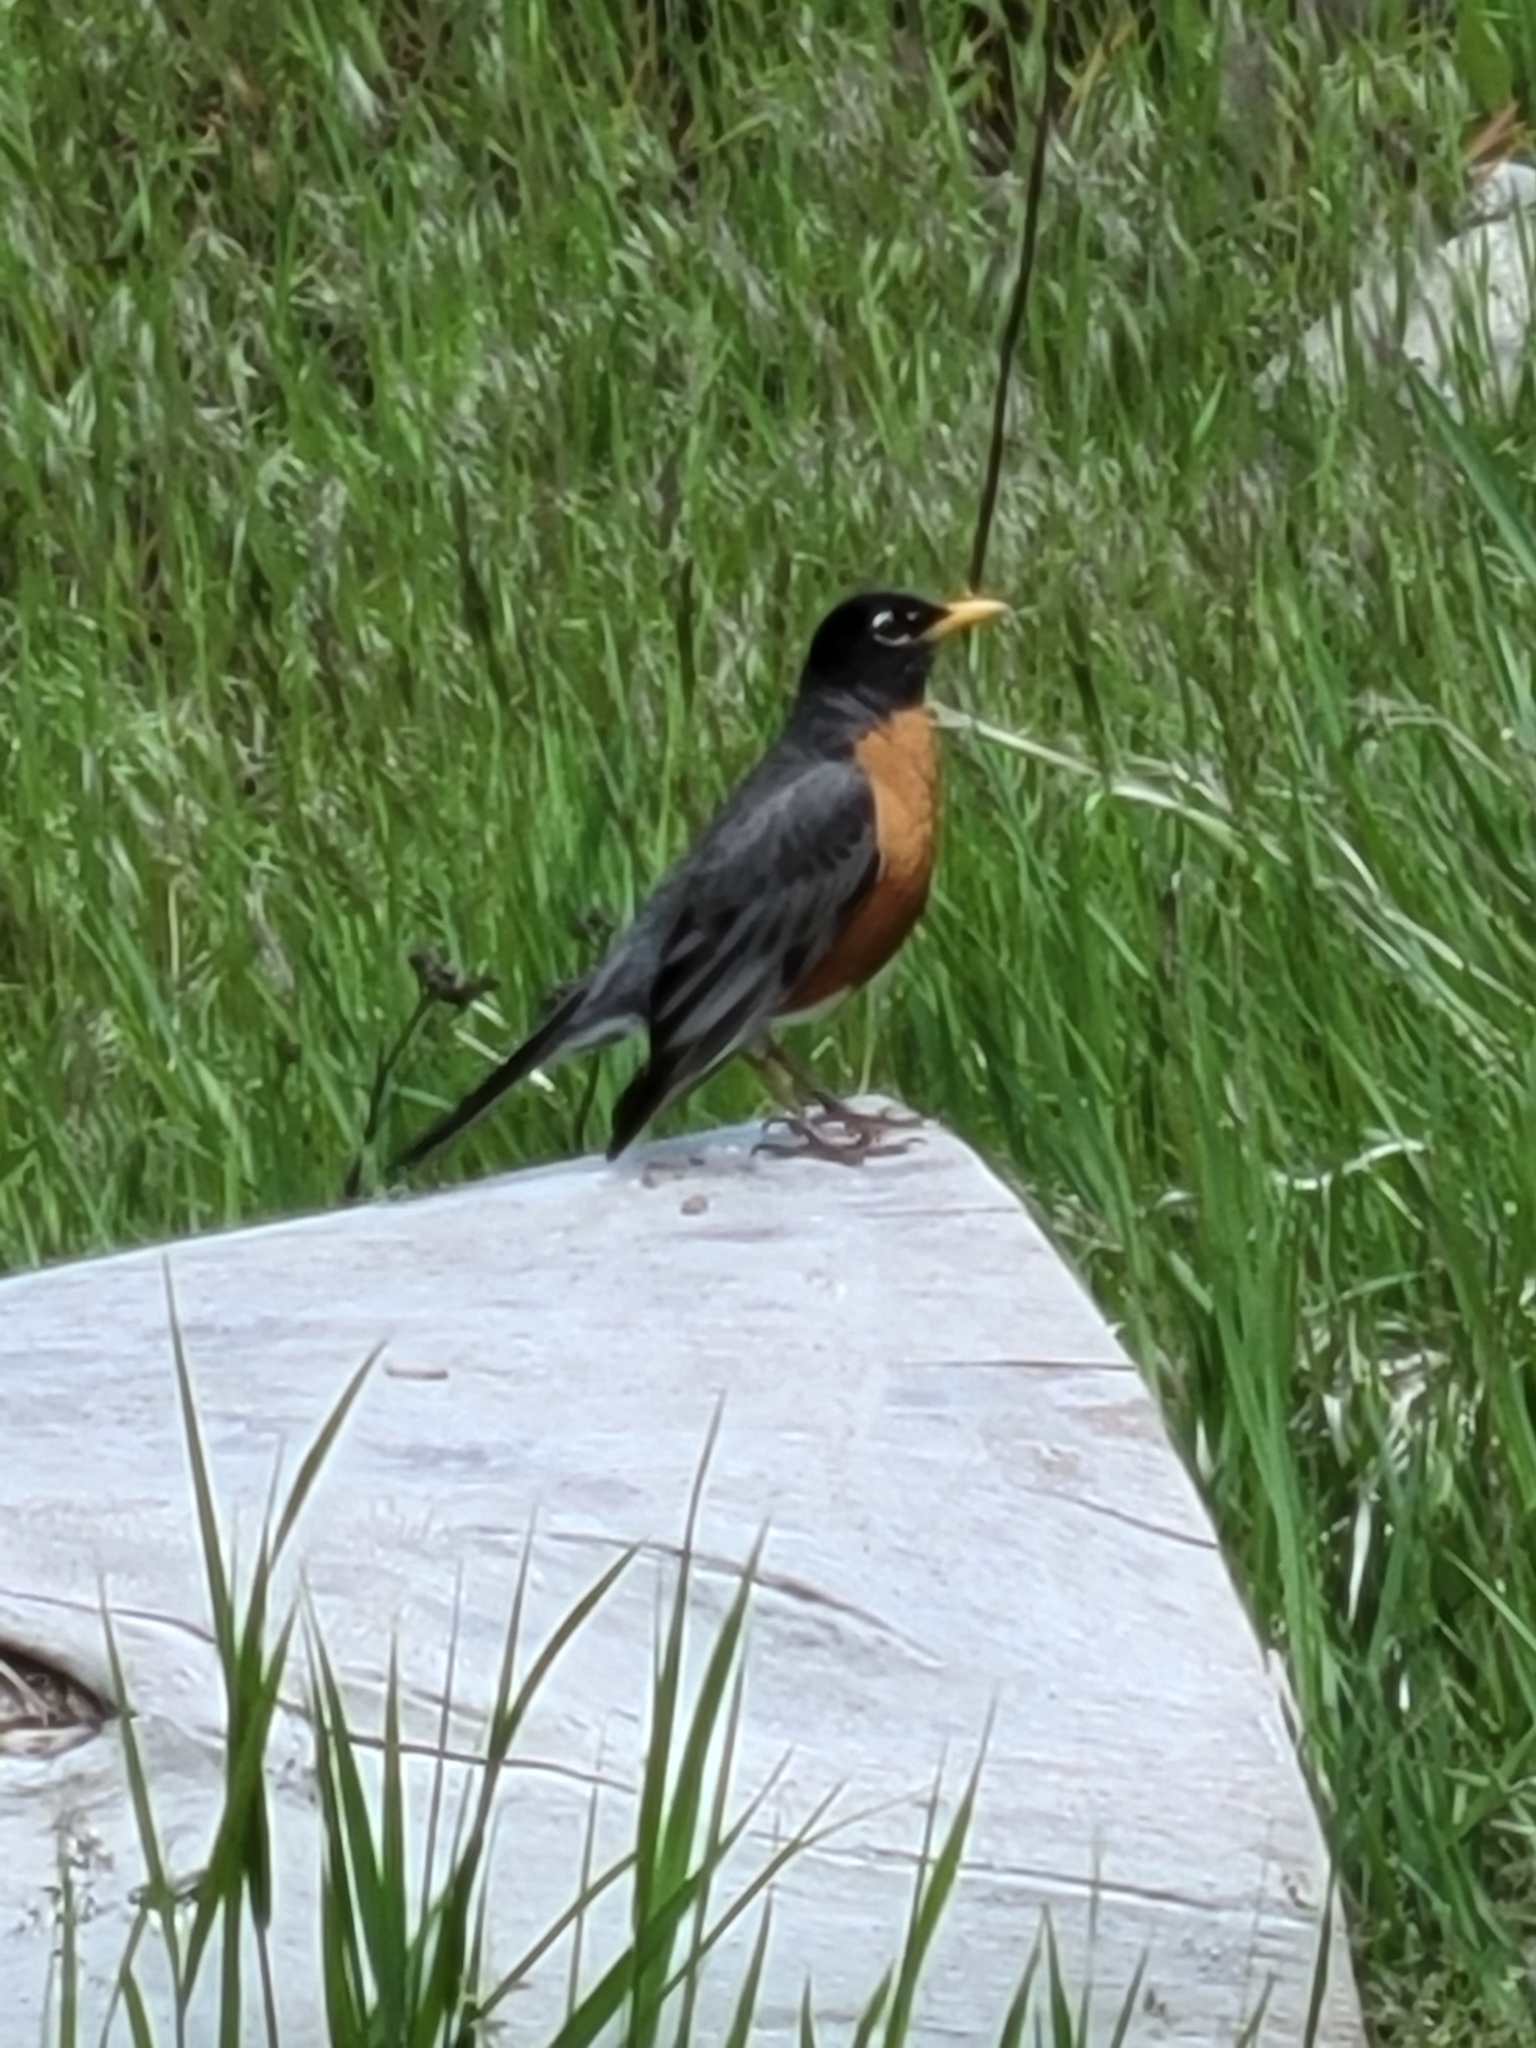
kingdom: Animalia
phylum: Chordata
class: Aves
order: Passeriformes
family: Turdidae
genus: Turdus
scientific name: Turdus migratorius
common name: American robin
